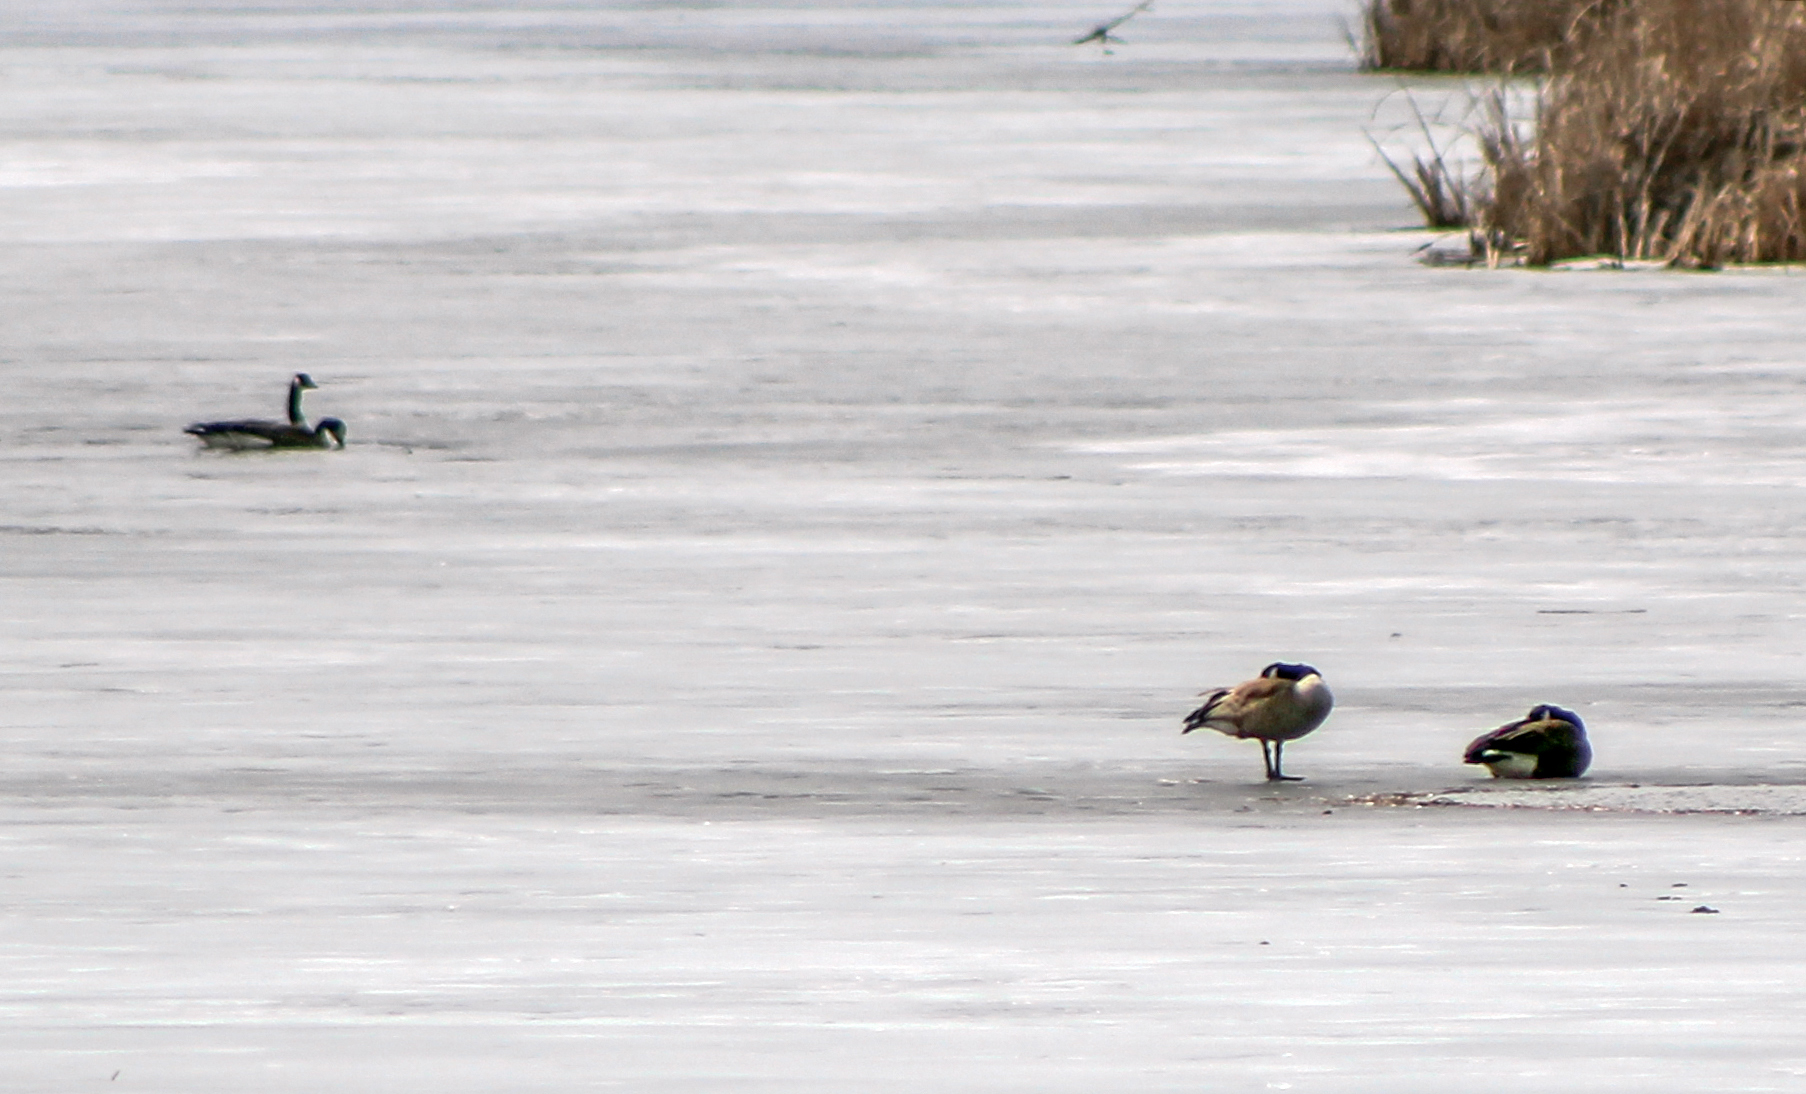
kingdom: Animalia
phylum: Chordata
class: Aves
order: Anseriformes
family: Anatidae
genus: Branta
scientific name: Branta canadensis
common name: Canada goose
